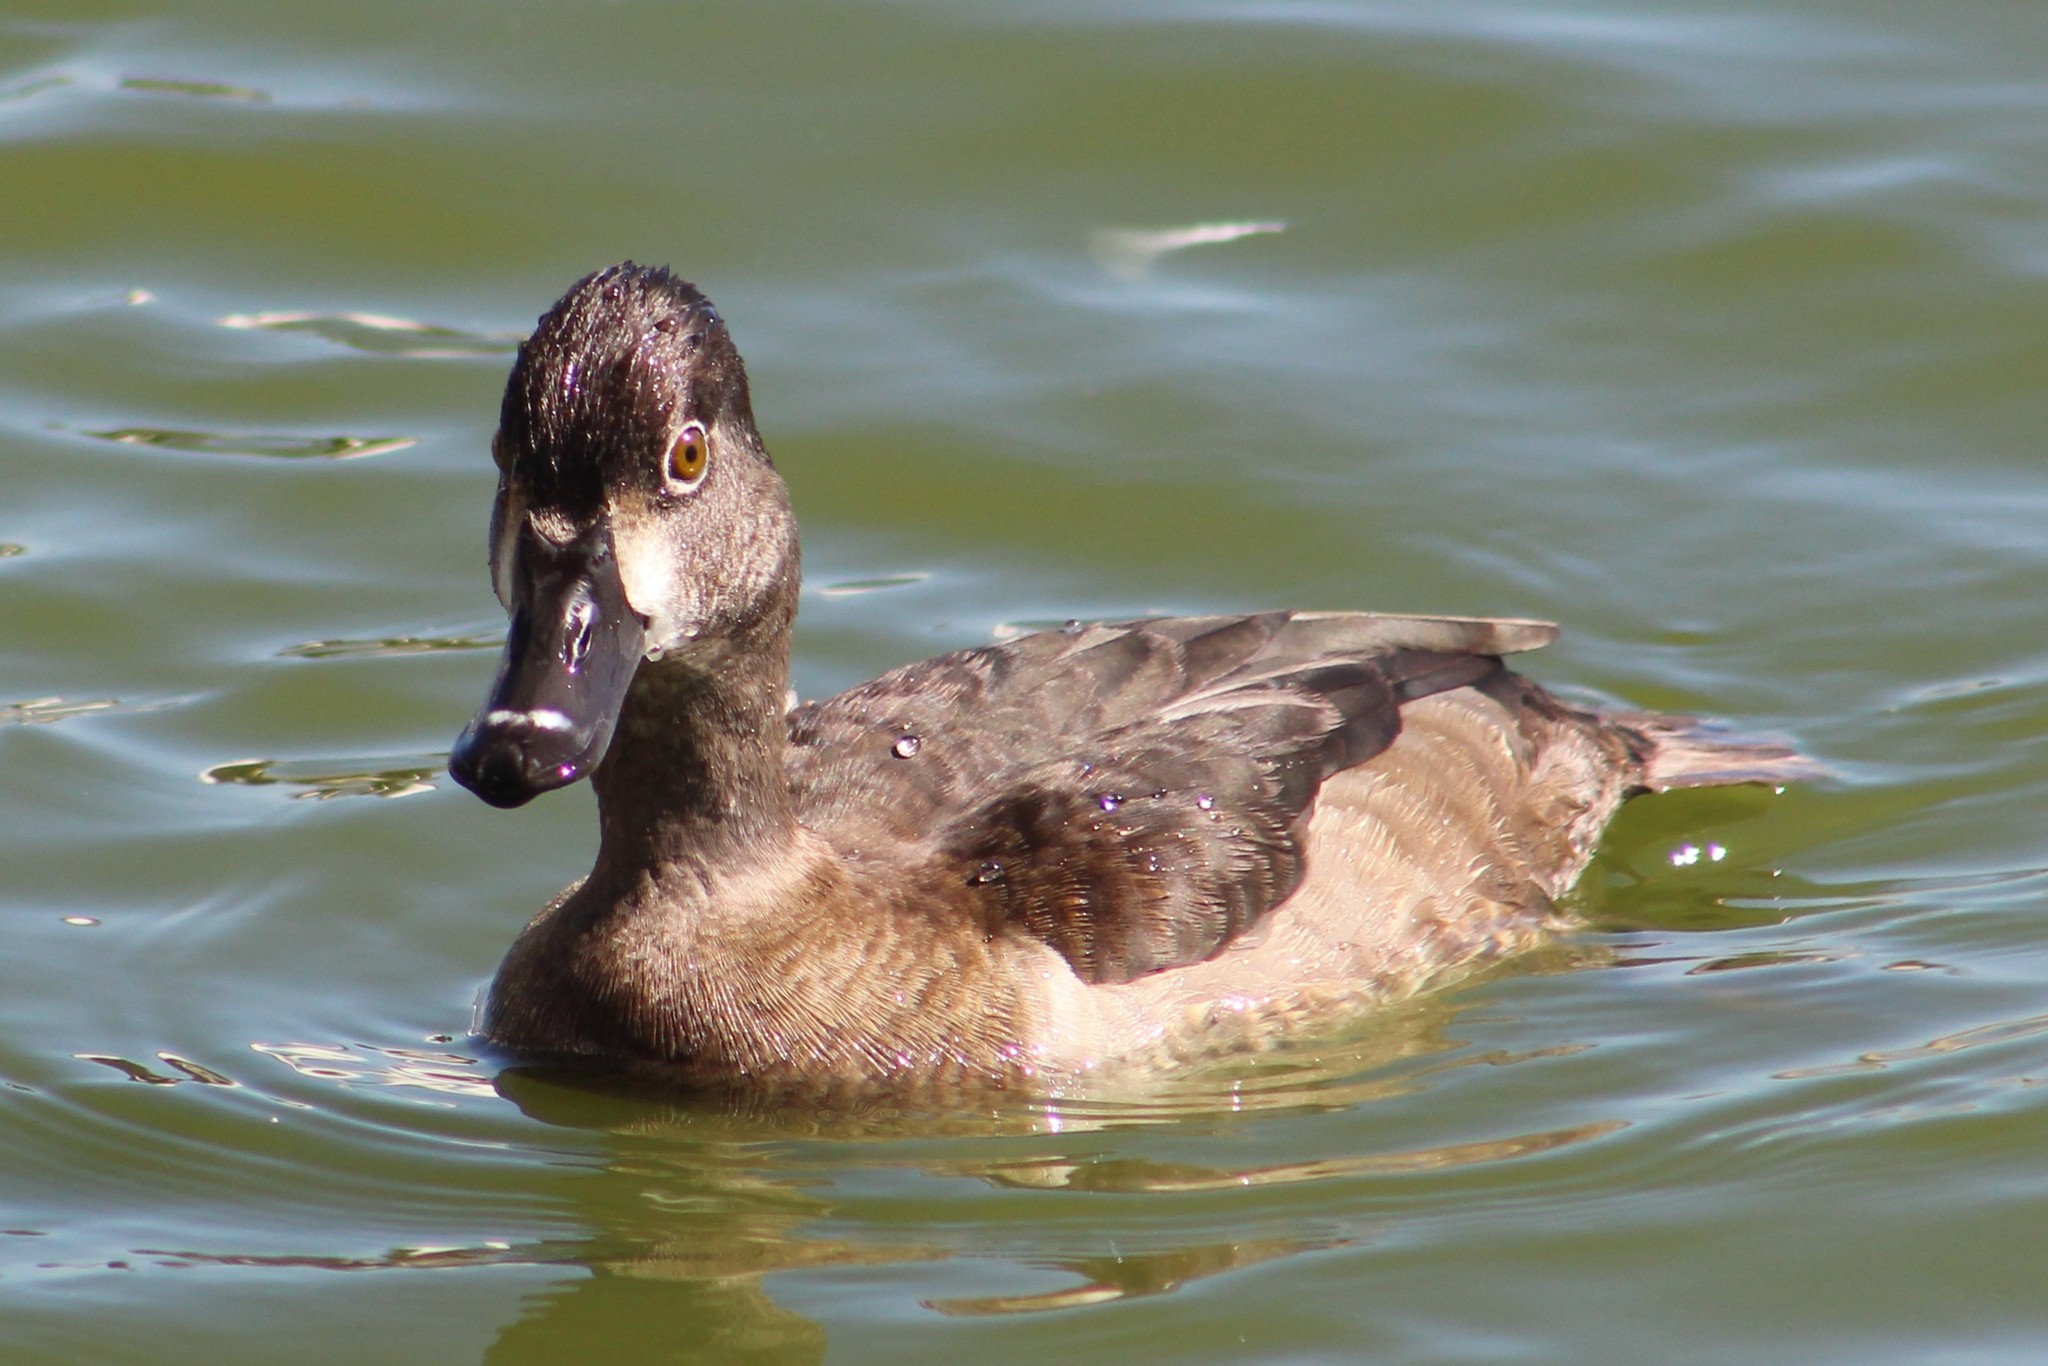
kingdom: Animalia
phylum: Chordata
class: Aves
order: Anseriformes
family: Anatidae
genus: Aythya
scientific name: Aythya collaris
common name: Ring-necked duck
